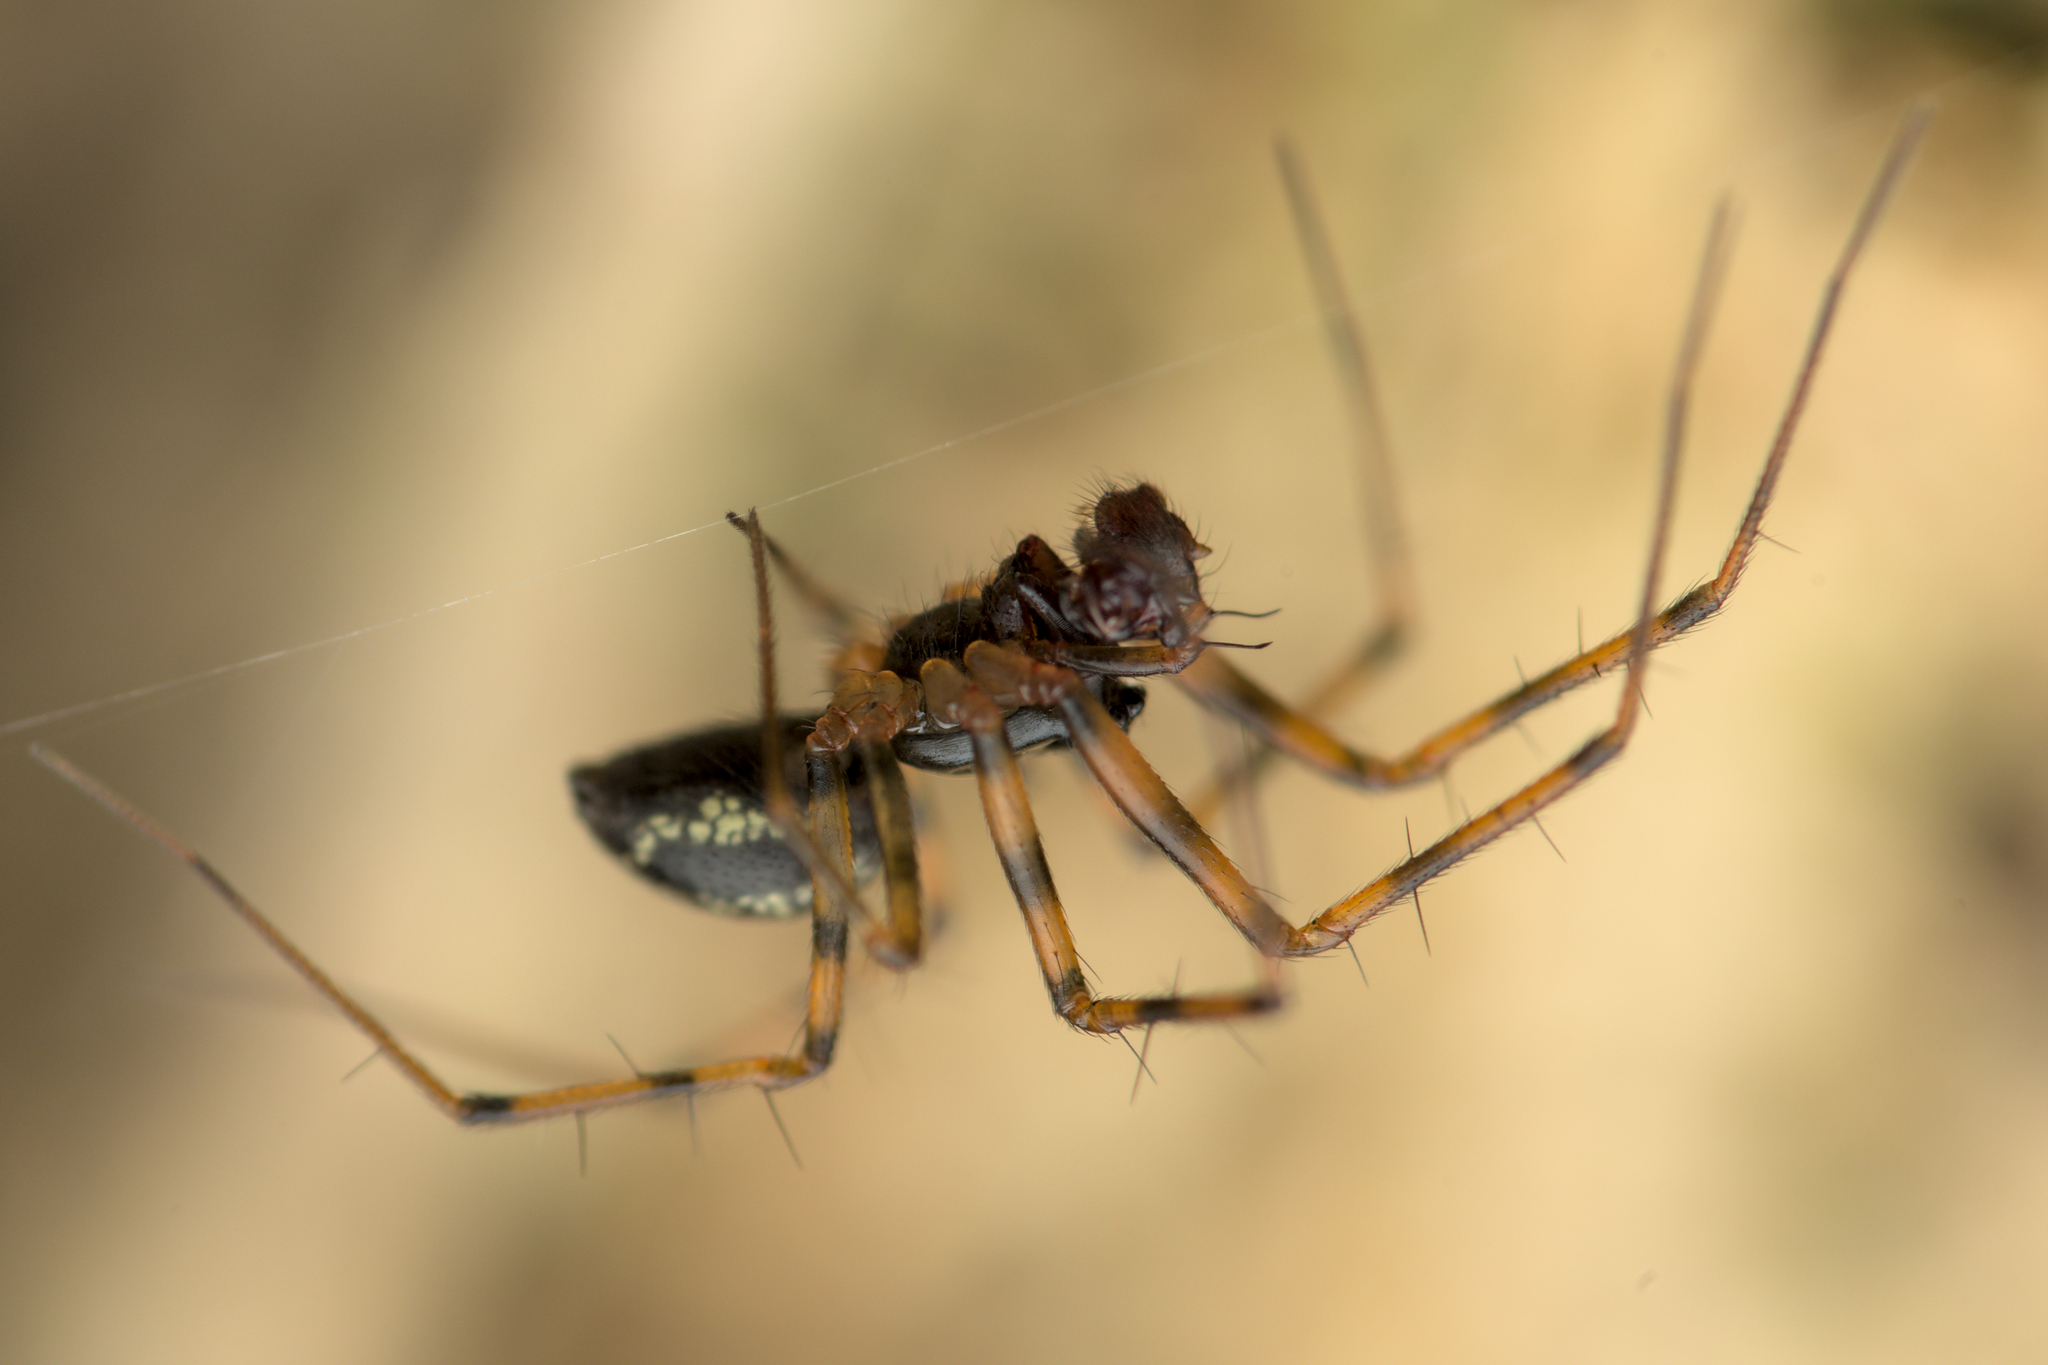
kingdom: Animalia
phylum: Arthropoda
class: Arachnida
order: Araneae
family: Linyphiidae
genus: Lepthyphantes
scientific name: Lepthyphantes minutus
